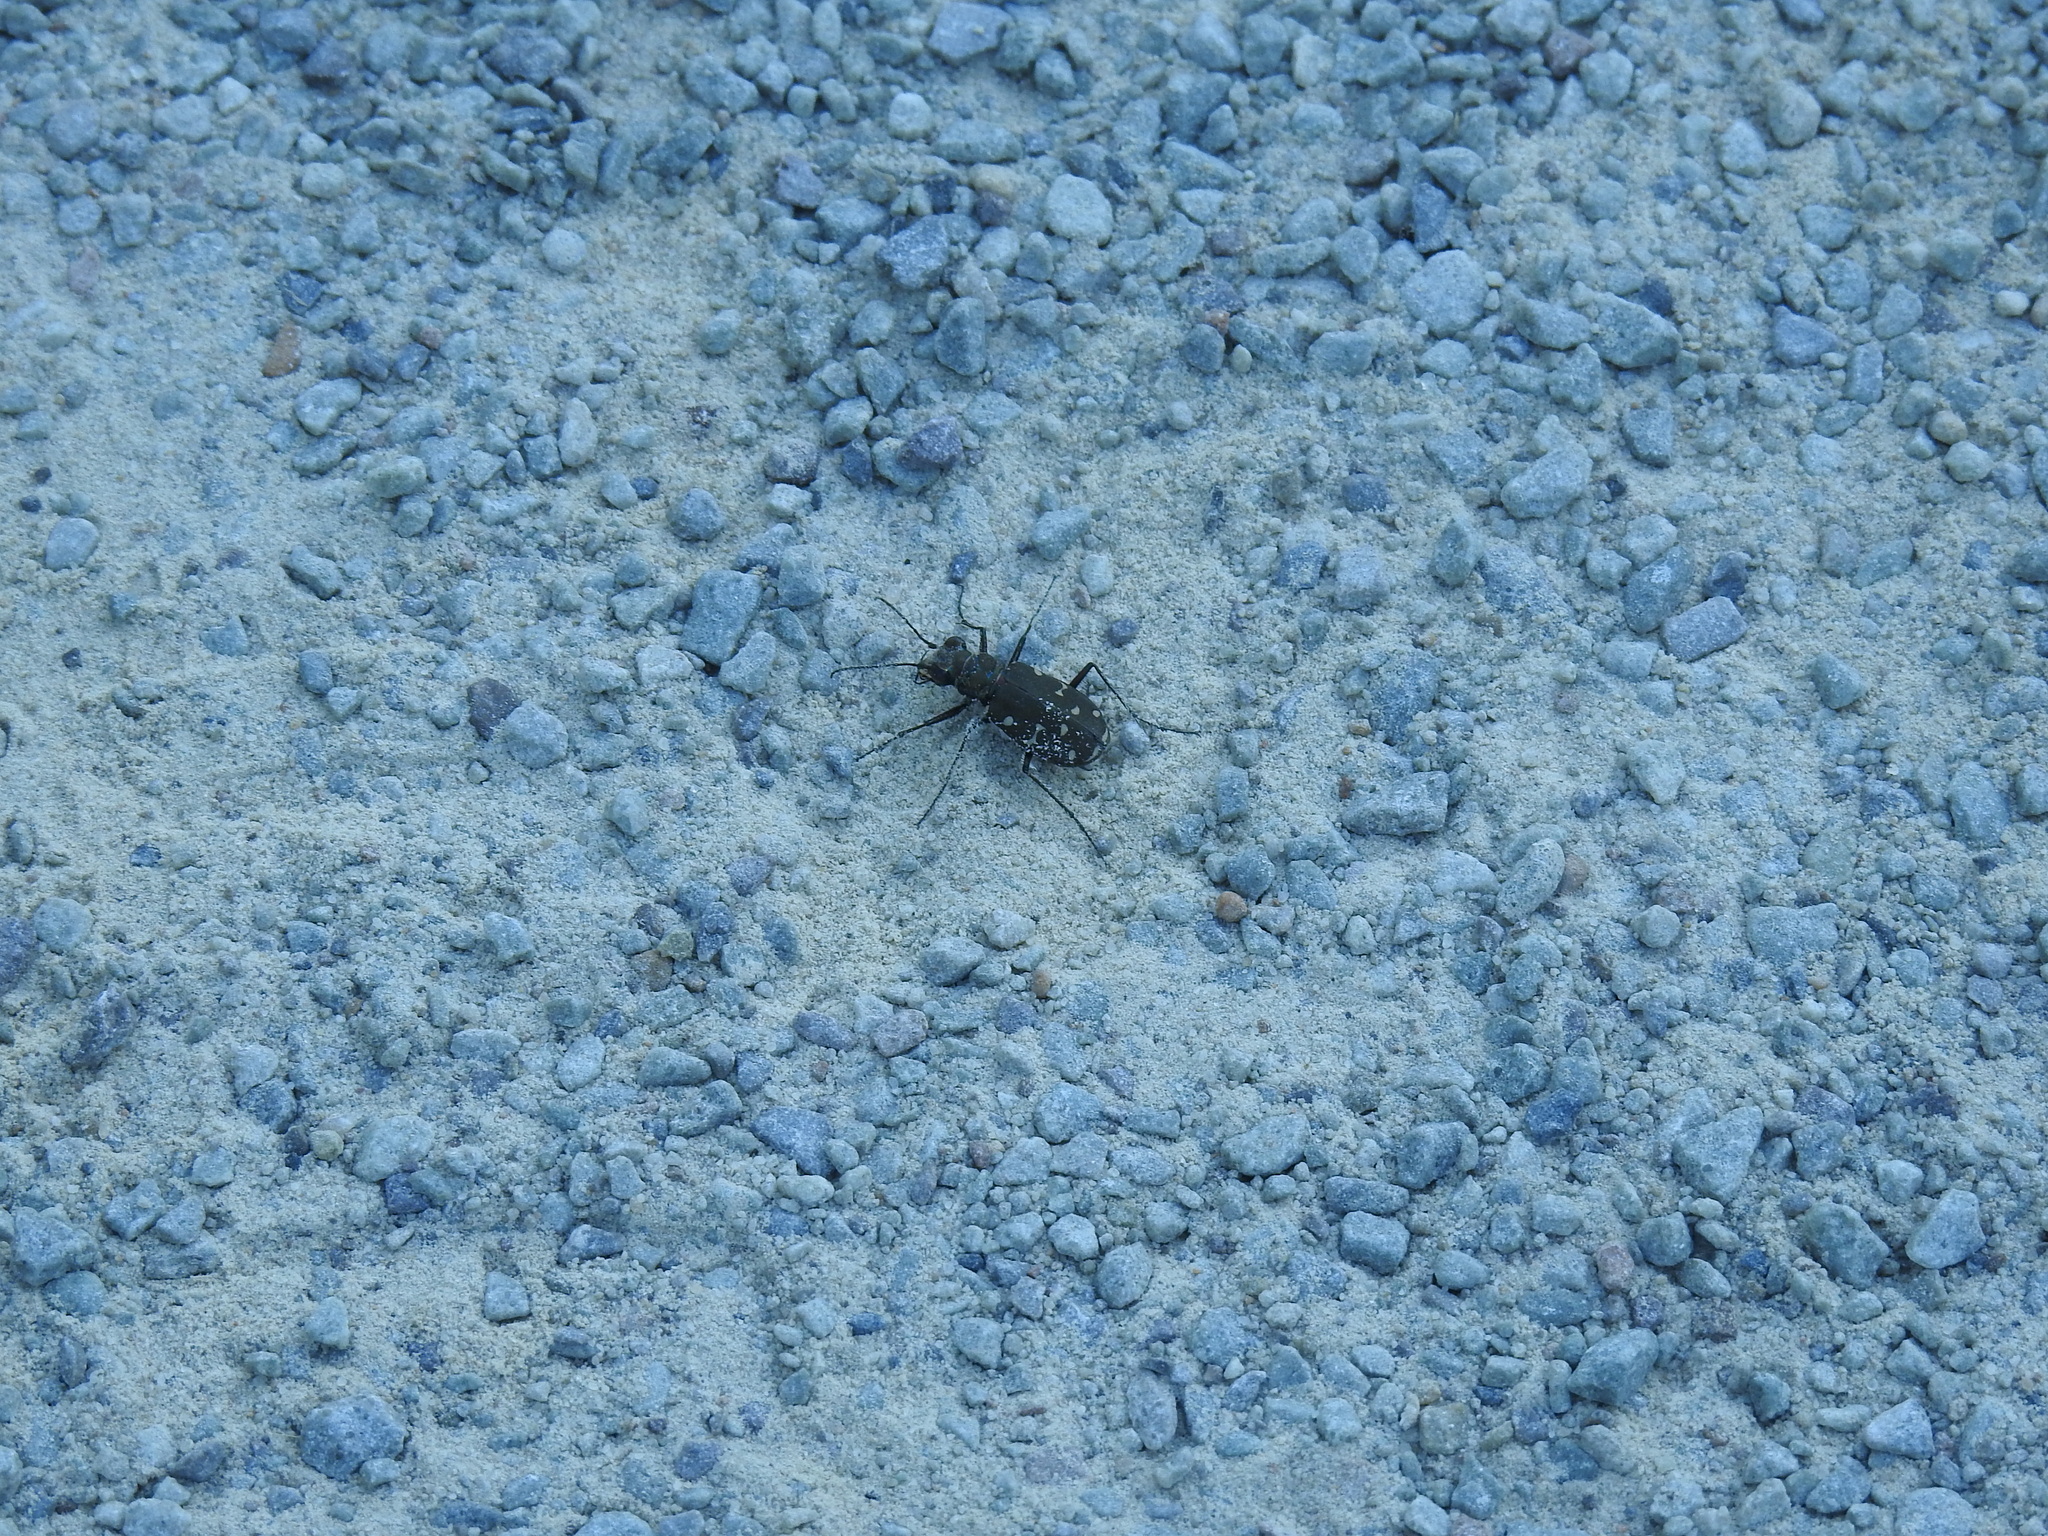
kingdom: Animalia
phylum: Arthropoda
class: Insecta
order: Coleoptera
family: Carabidae
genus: Cicindela
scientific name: Cicindela duodecimguttata
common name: Twelve-spotted tiger beetle
